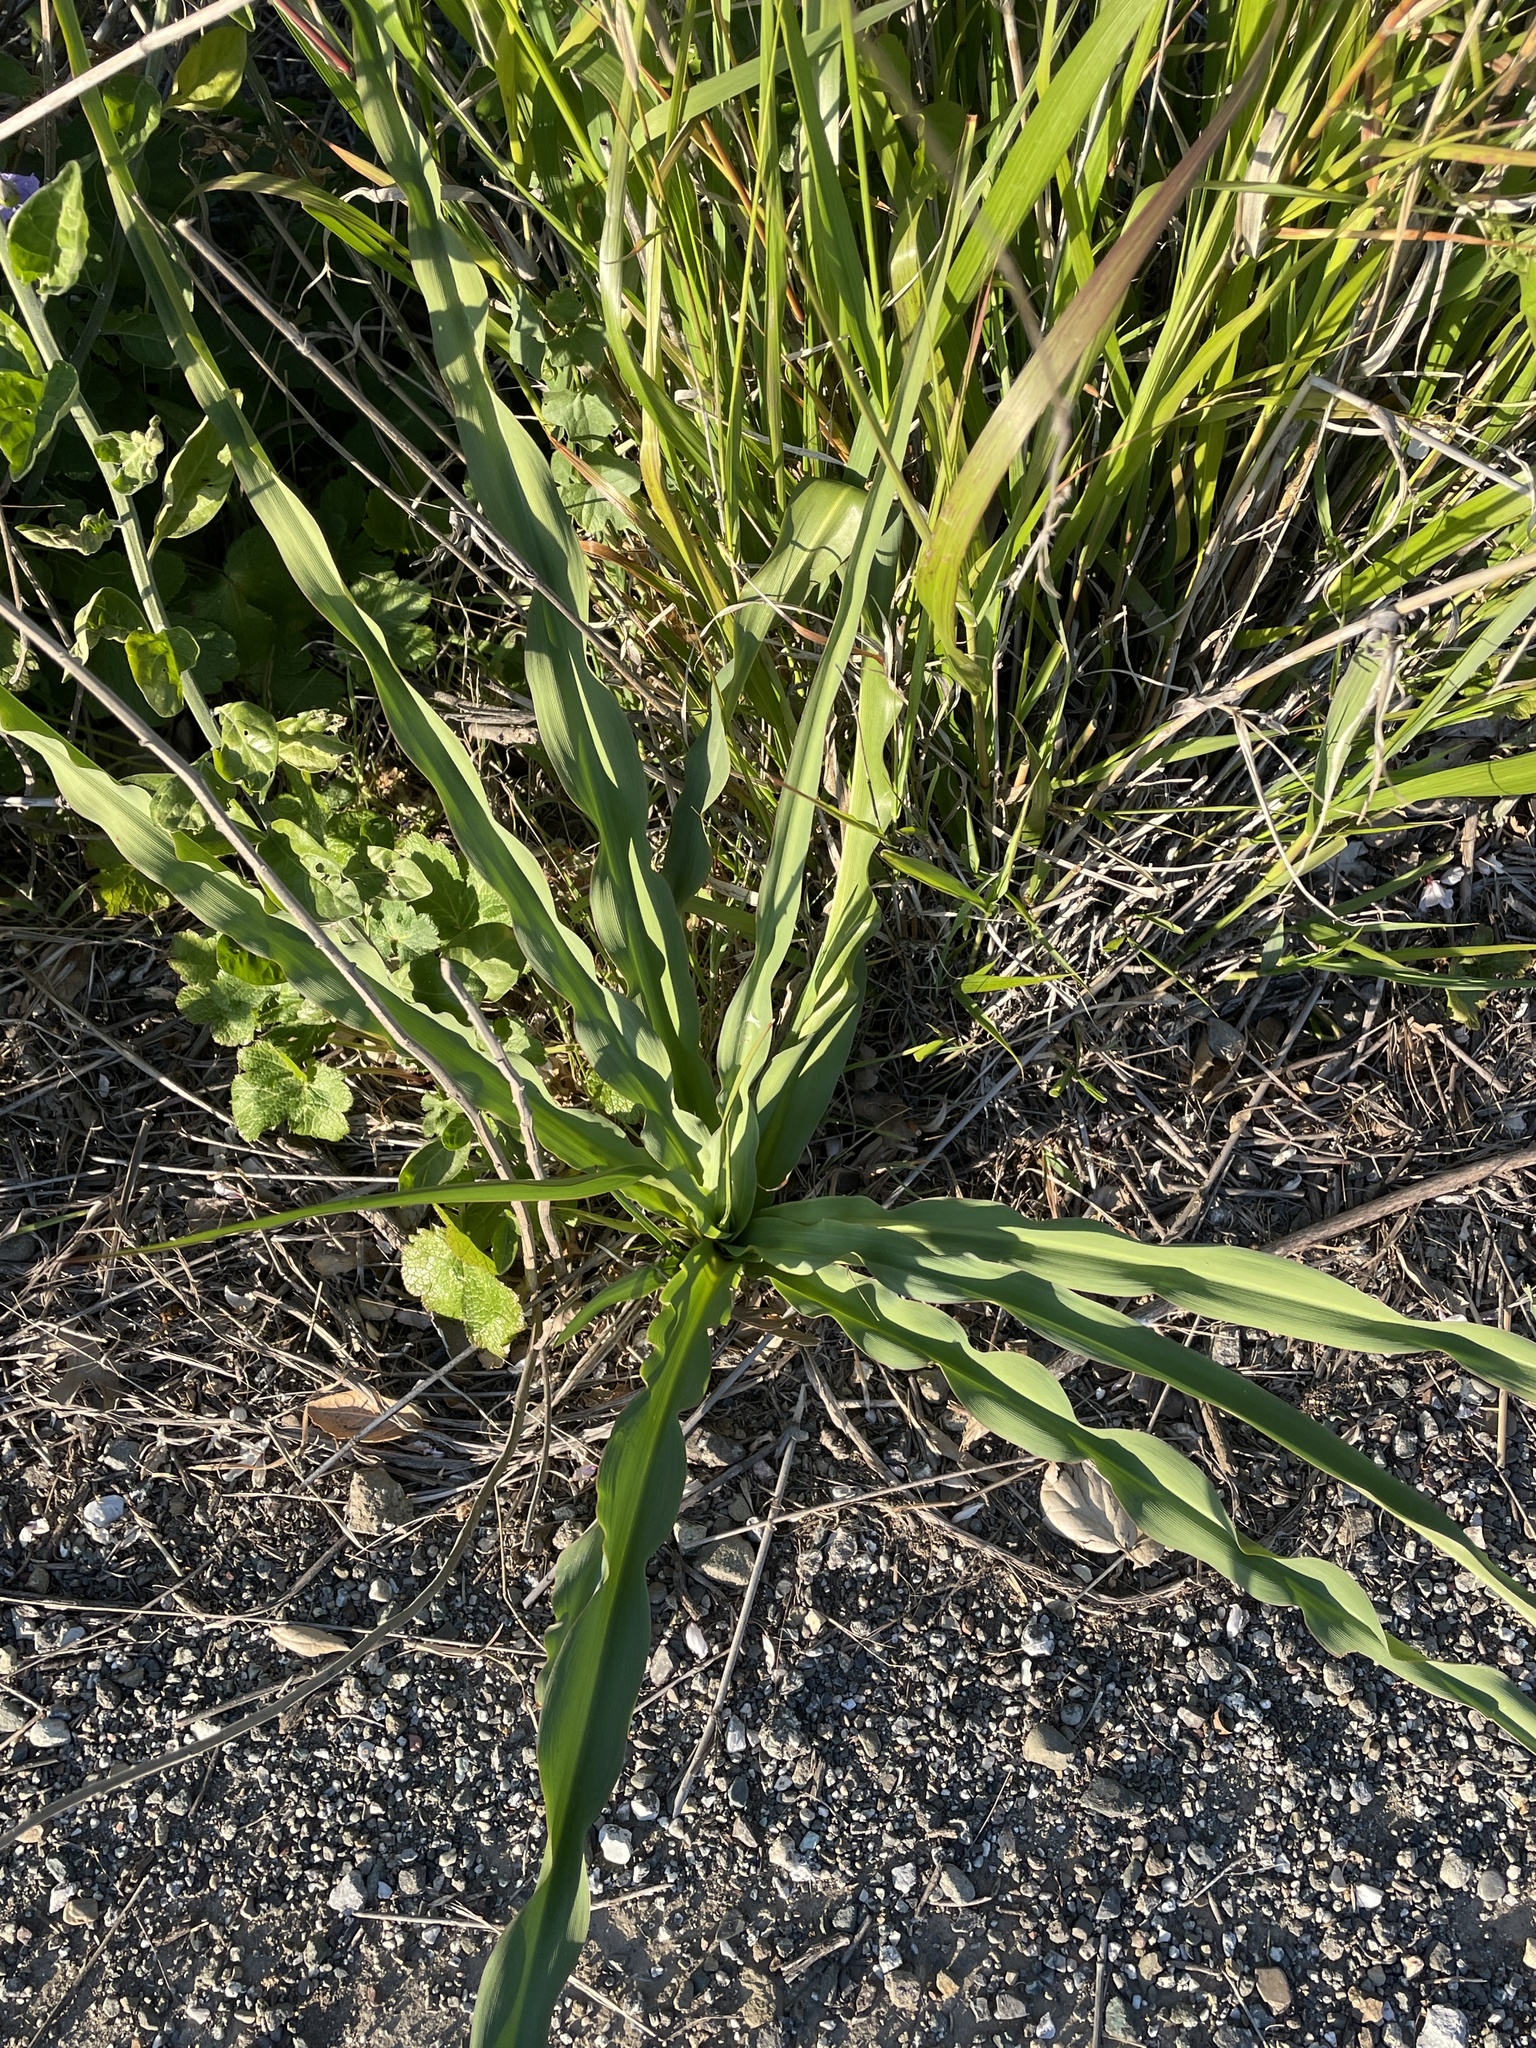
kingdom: Plantae
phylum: Tracheophyta
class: Liliopsida
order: Asparagales
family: Asparagaceae
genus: Chlorogalum
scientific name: Chlorogalum pomeridianum
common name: Amole
